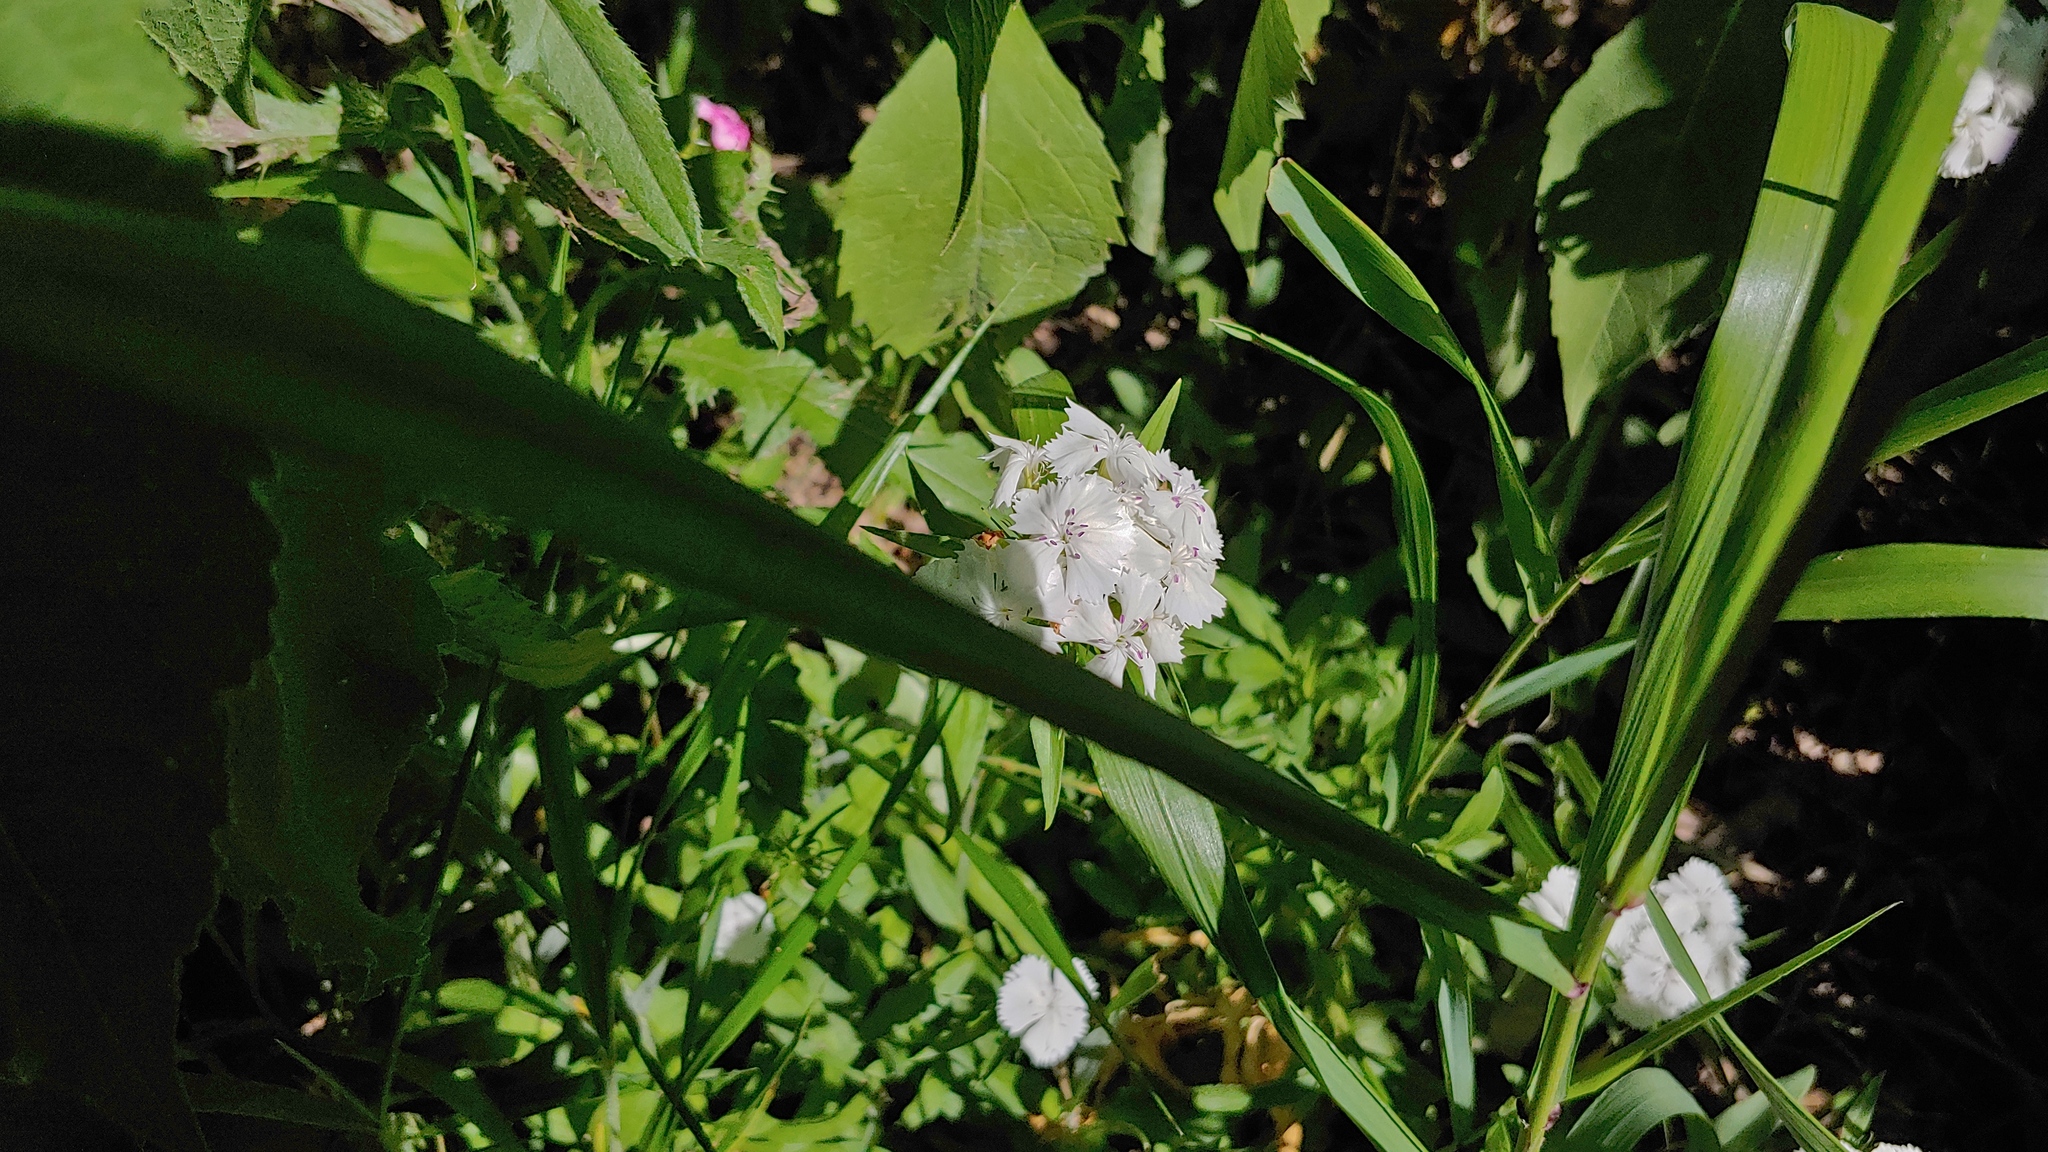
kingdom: Plantae
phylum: Tracheophyta
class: Magnoliopsida
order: Caryophyllales
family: Caryophyllaceae
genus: Dianthus
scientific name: Dianthus barbatus
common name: Sweet-william
